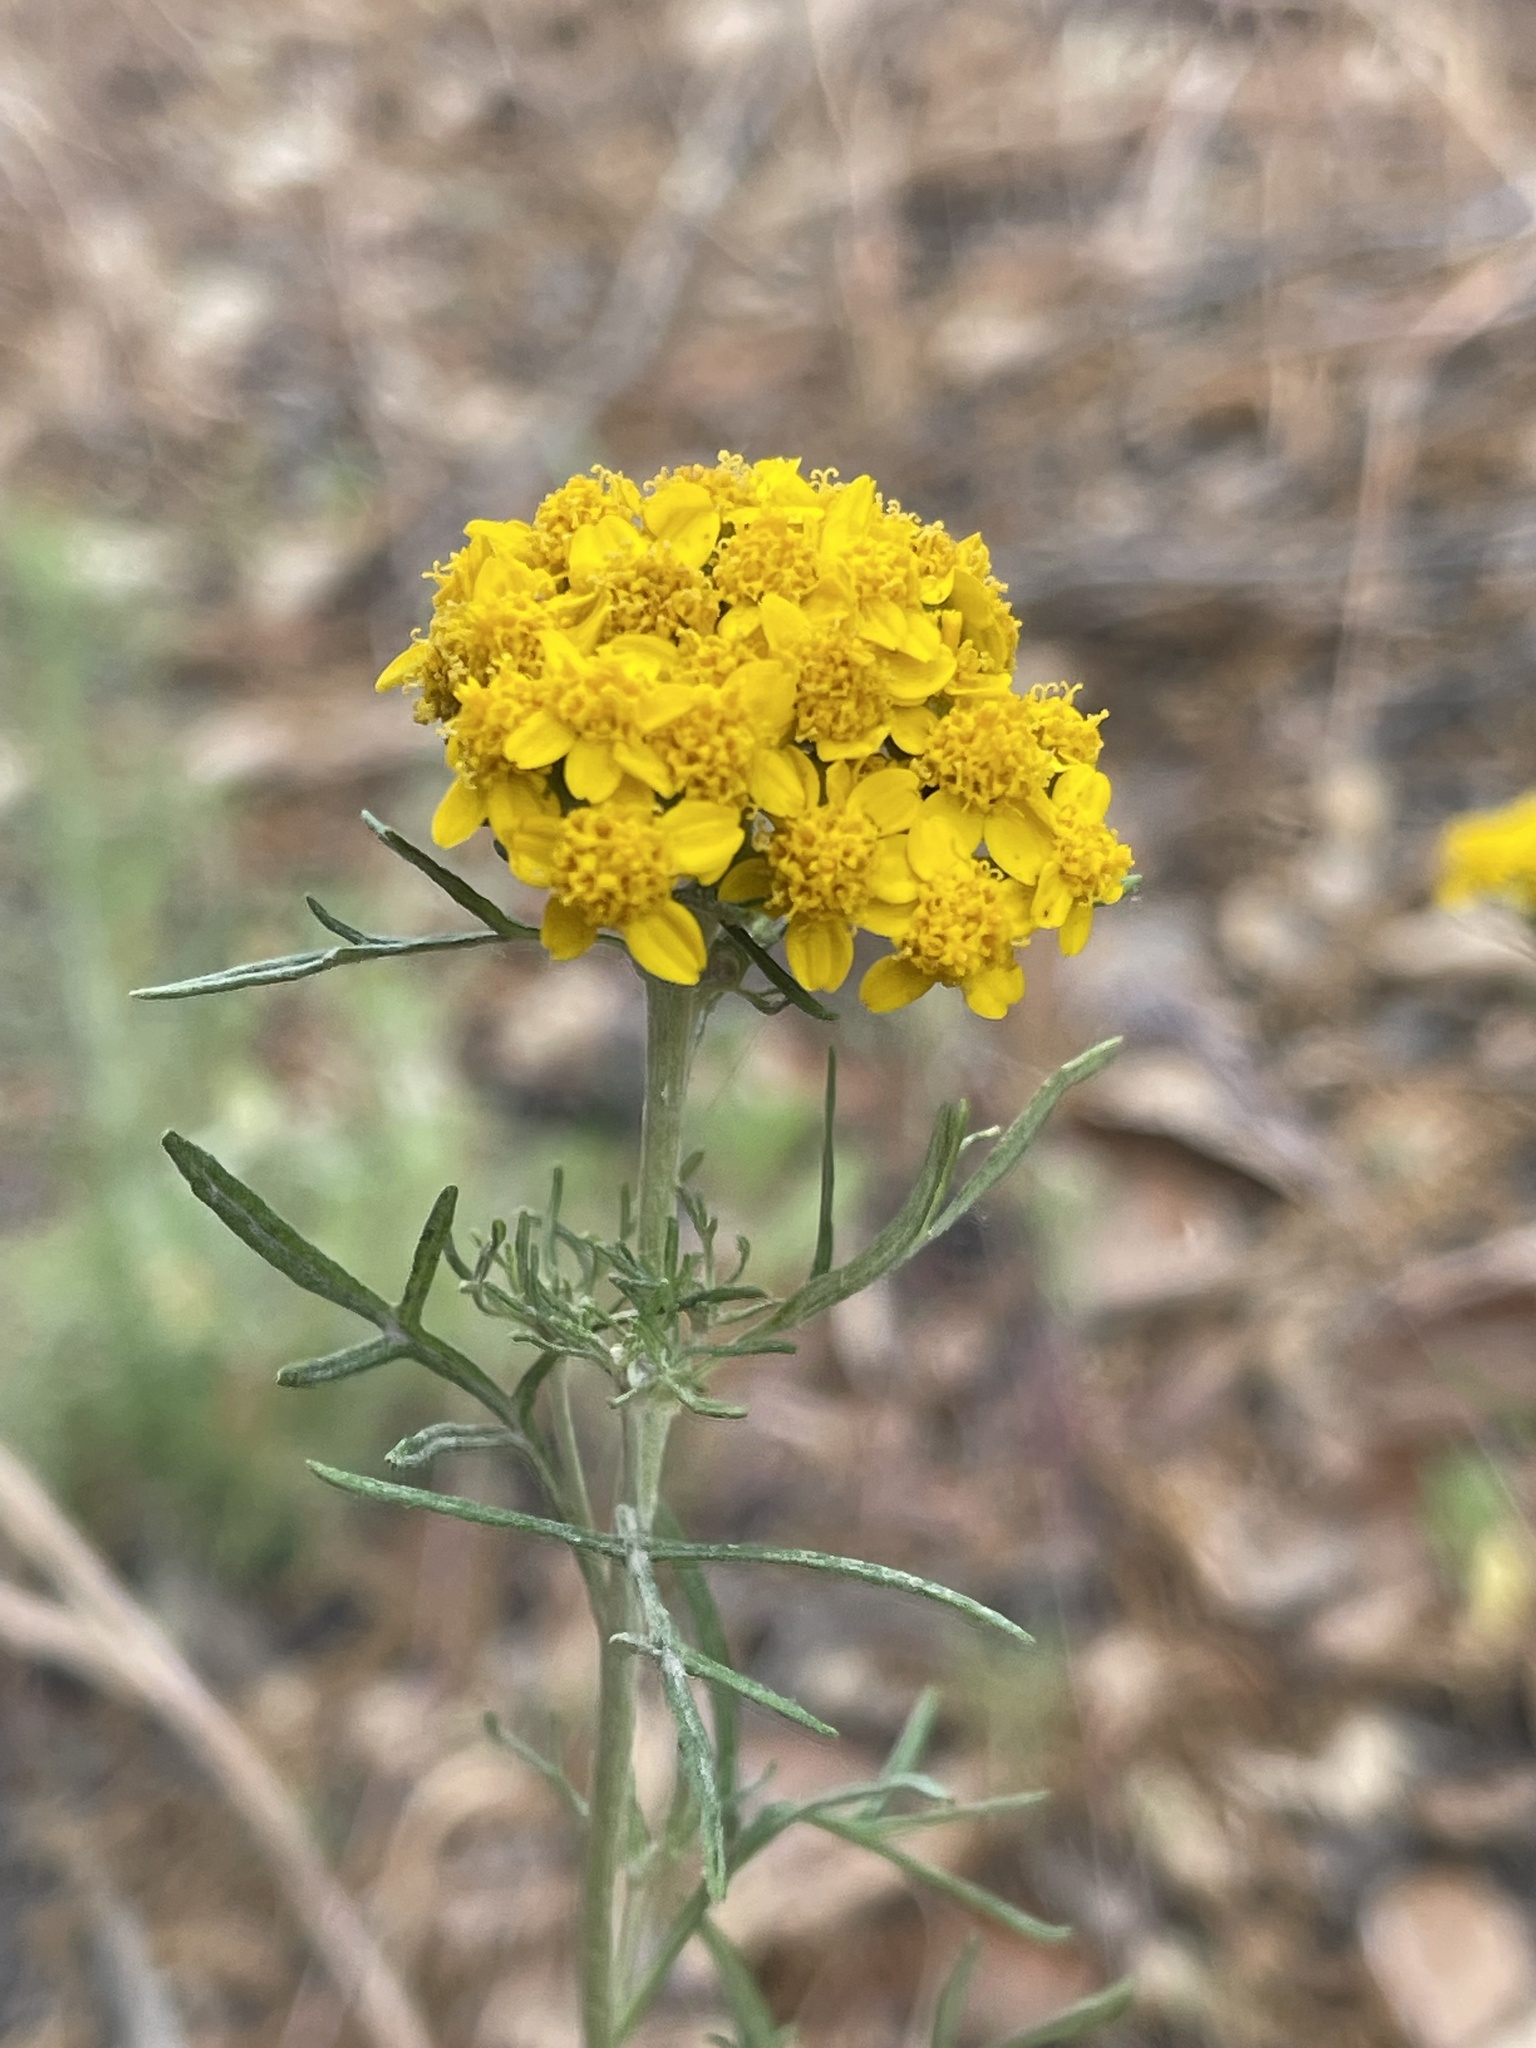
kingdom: Plantae
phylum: Tracheophyta
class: Magnoliopsida
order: Asterales
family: Asteraceae
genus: Eriophyllum
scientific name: Eriophyllum confertiflorum
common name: Golden-yarrow
